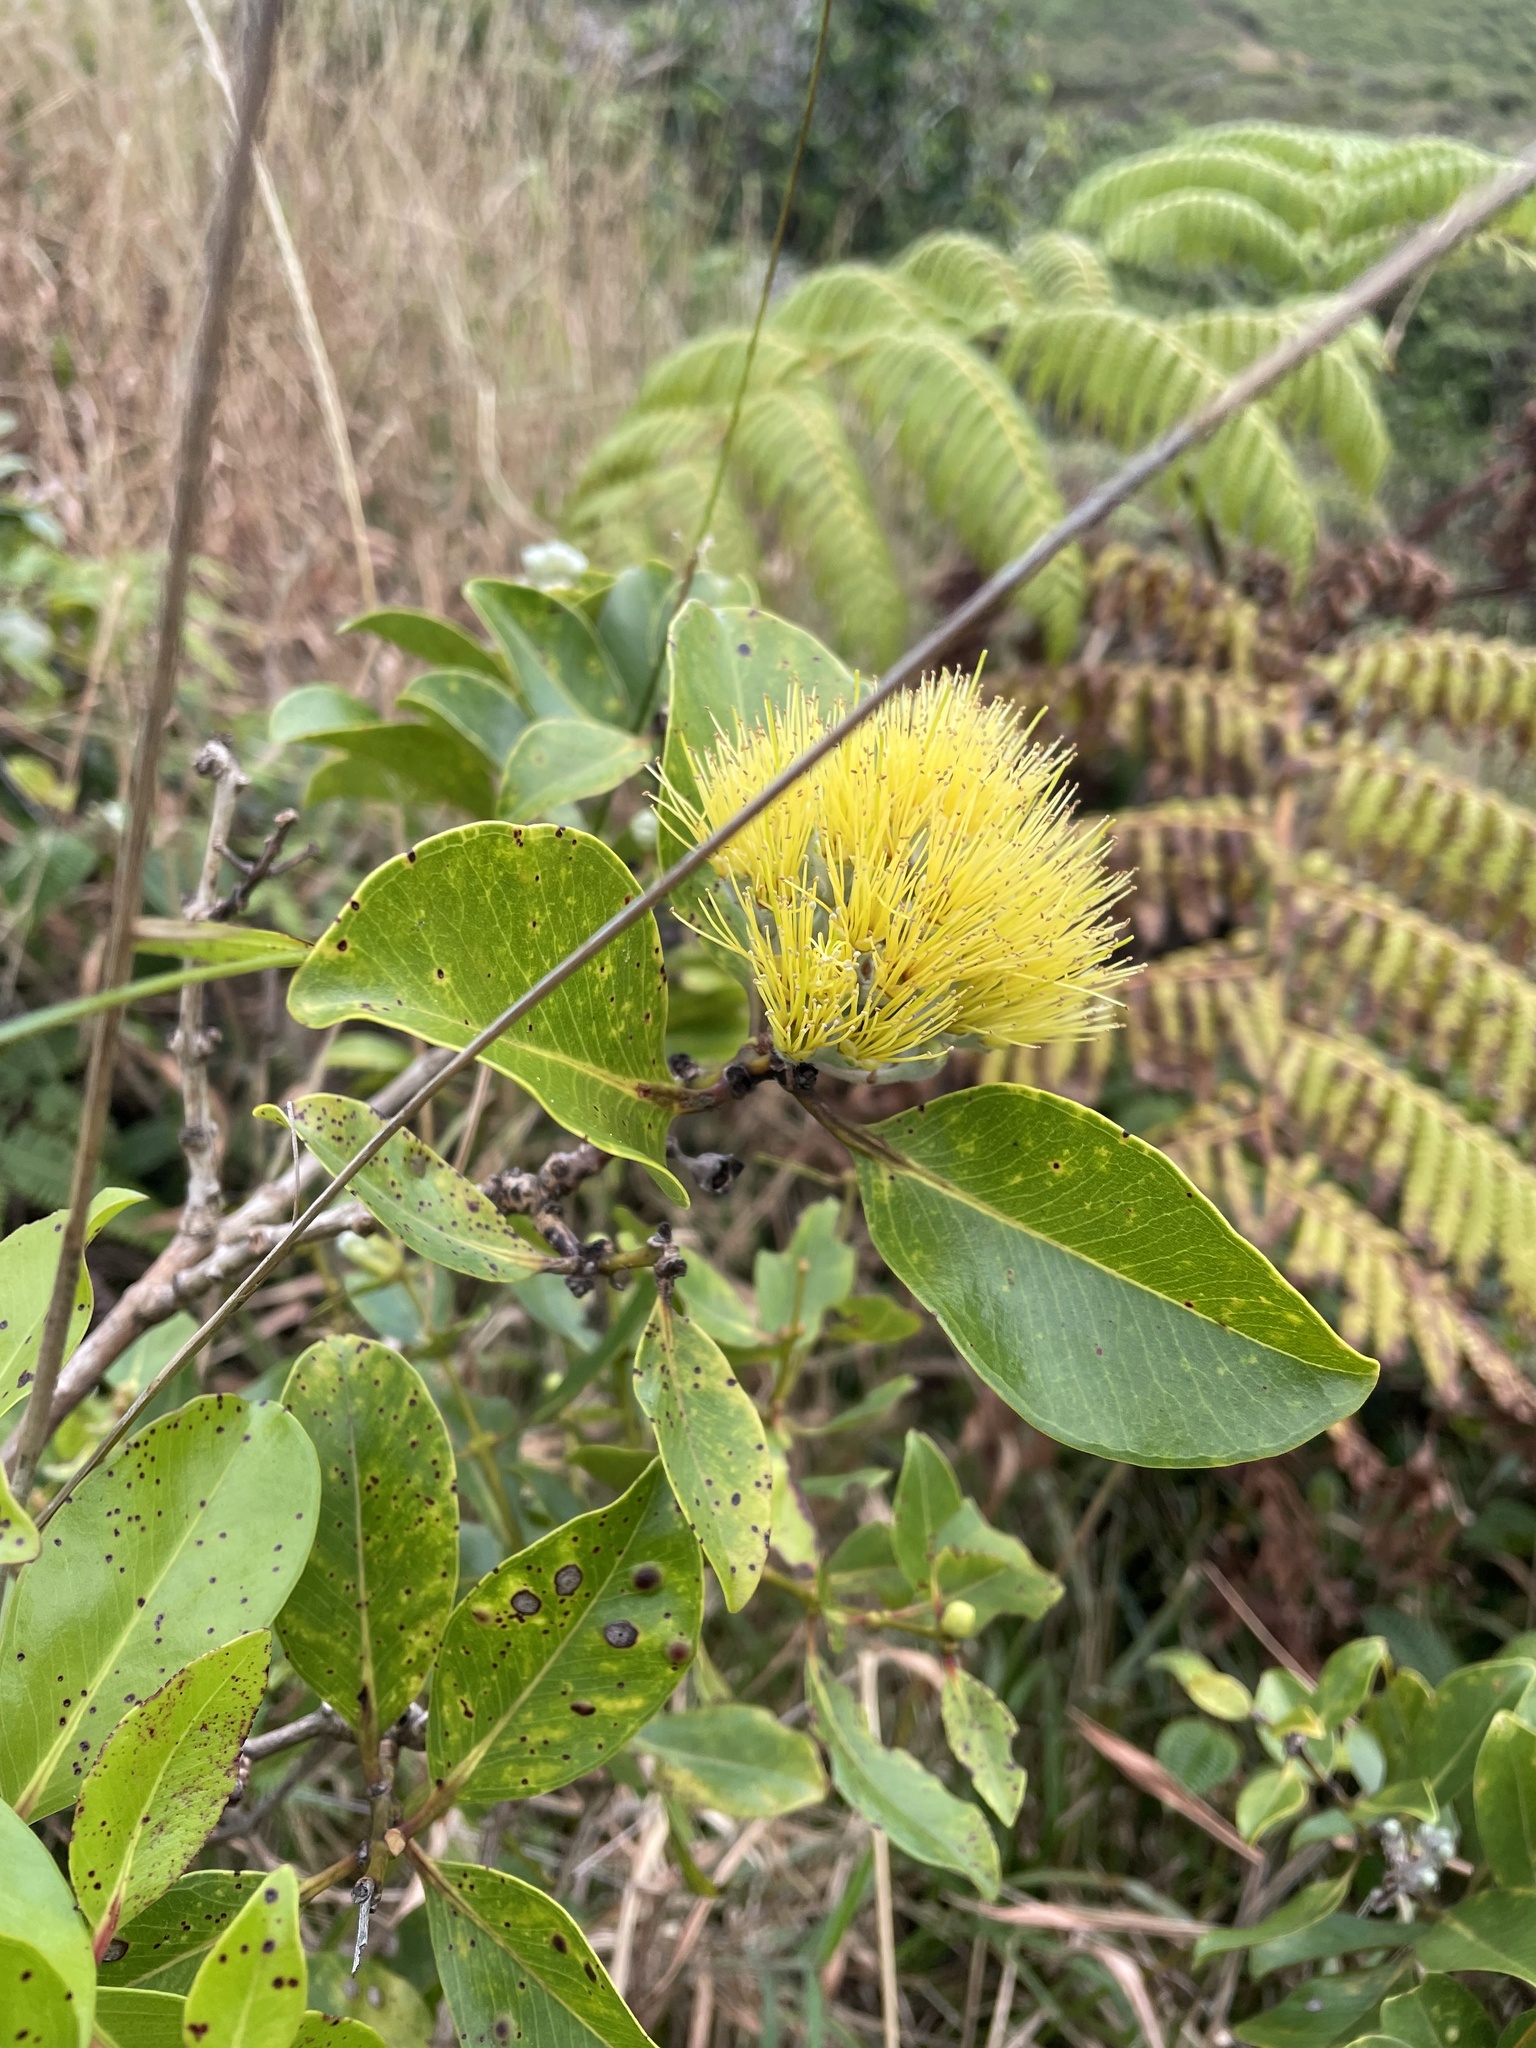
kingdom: Plantae
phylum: Tracheophyta
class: Magnoliopsida
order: Myrtales
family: Myrtaceae
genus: Metrosideros
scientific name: Metrosideros polymorpha
